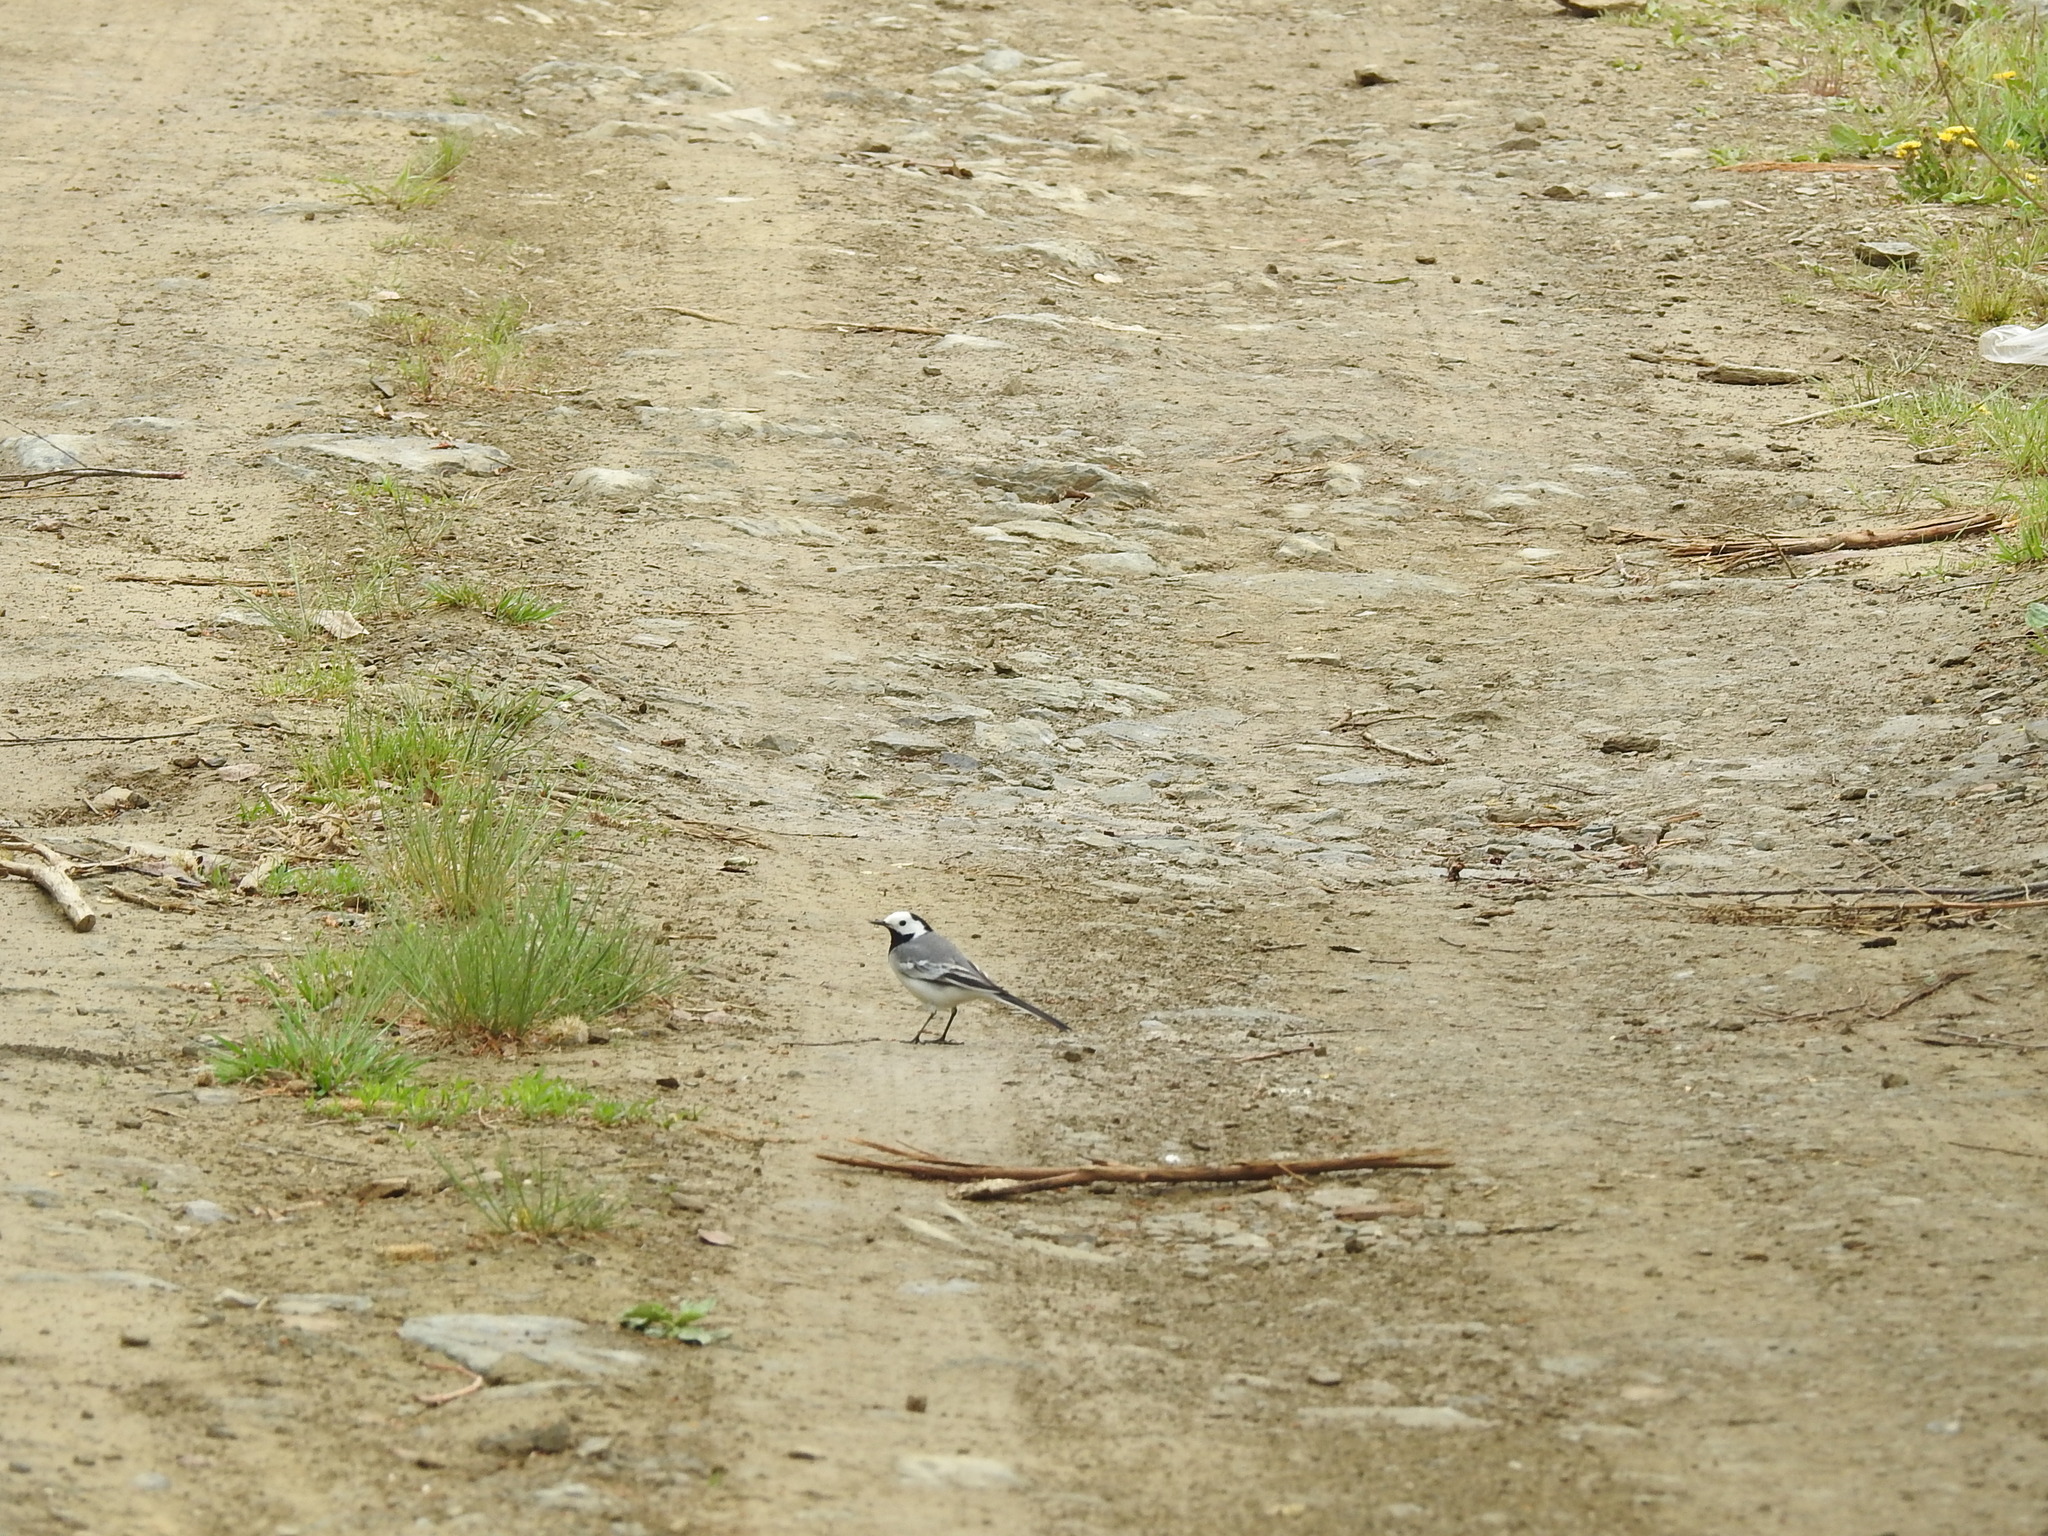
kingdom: Animalia
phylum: Chordata
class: Aves
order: Passeriformes
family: Motacillidae
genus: Motacilla
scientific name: Motacilla alba
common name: White wagtail
